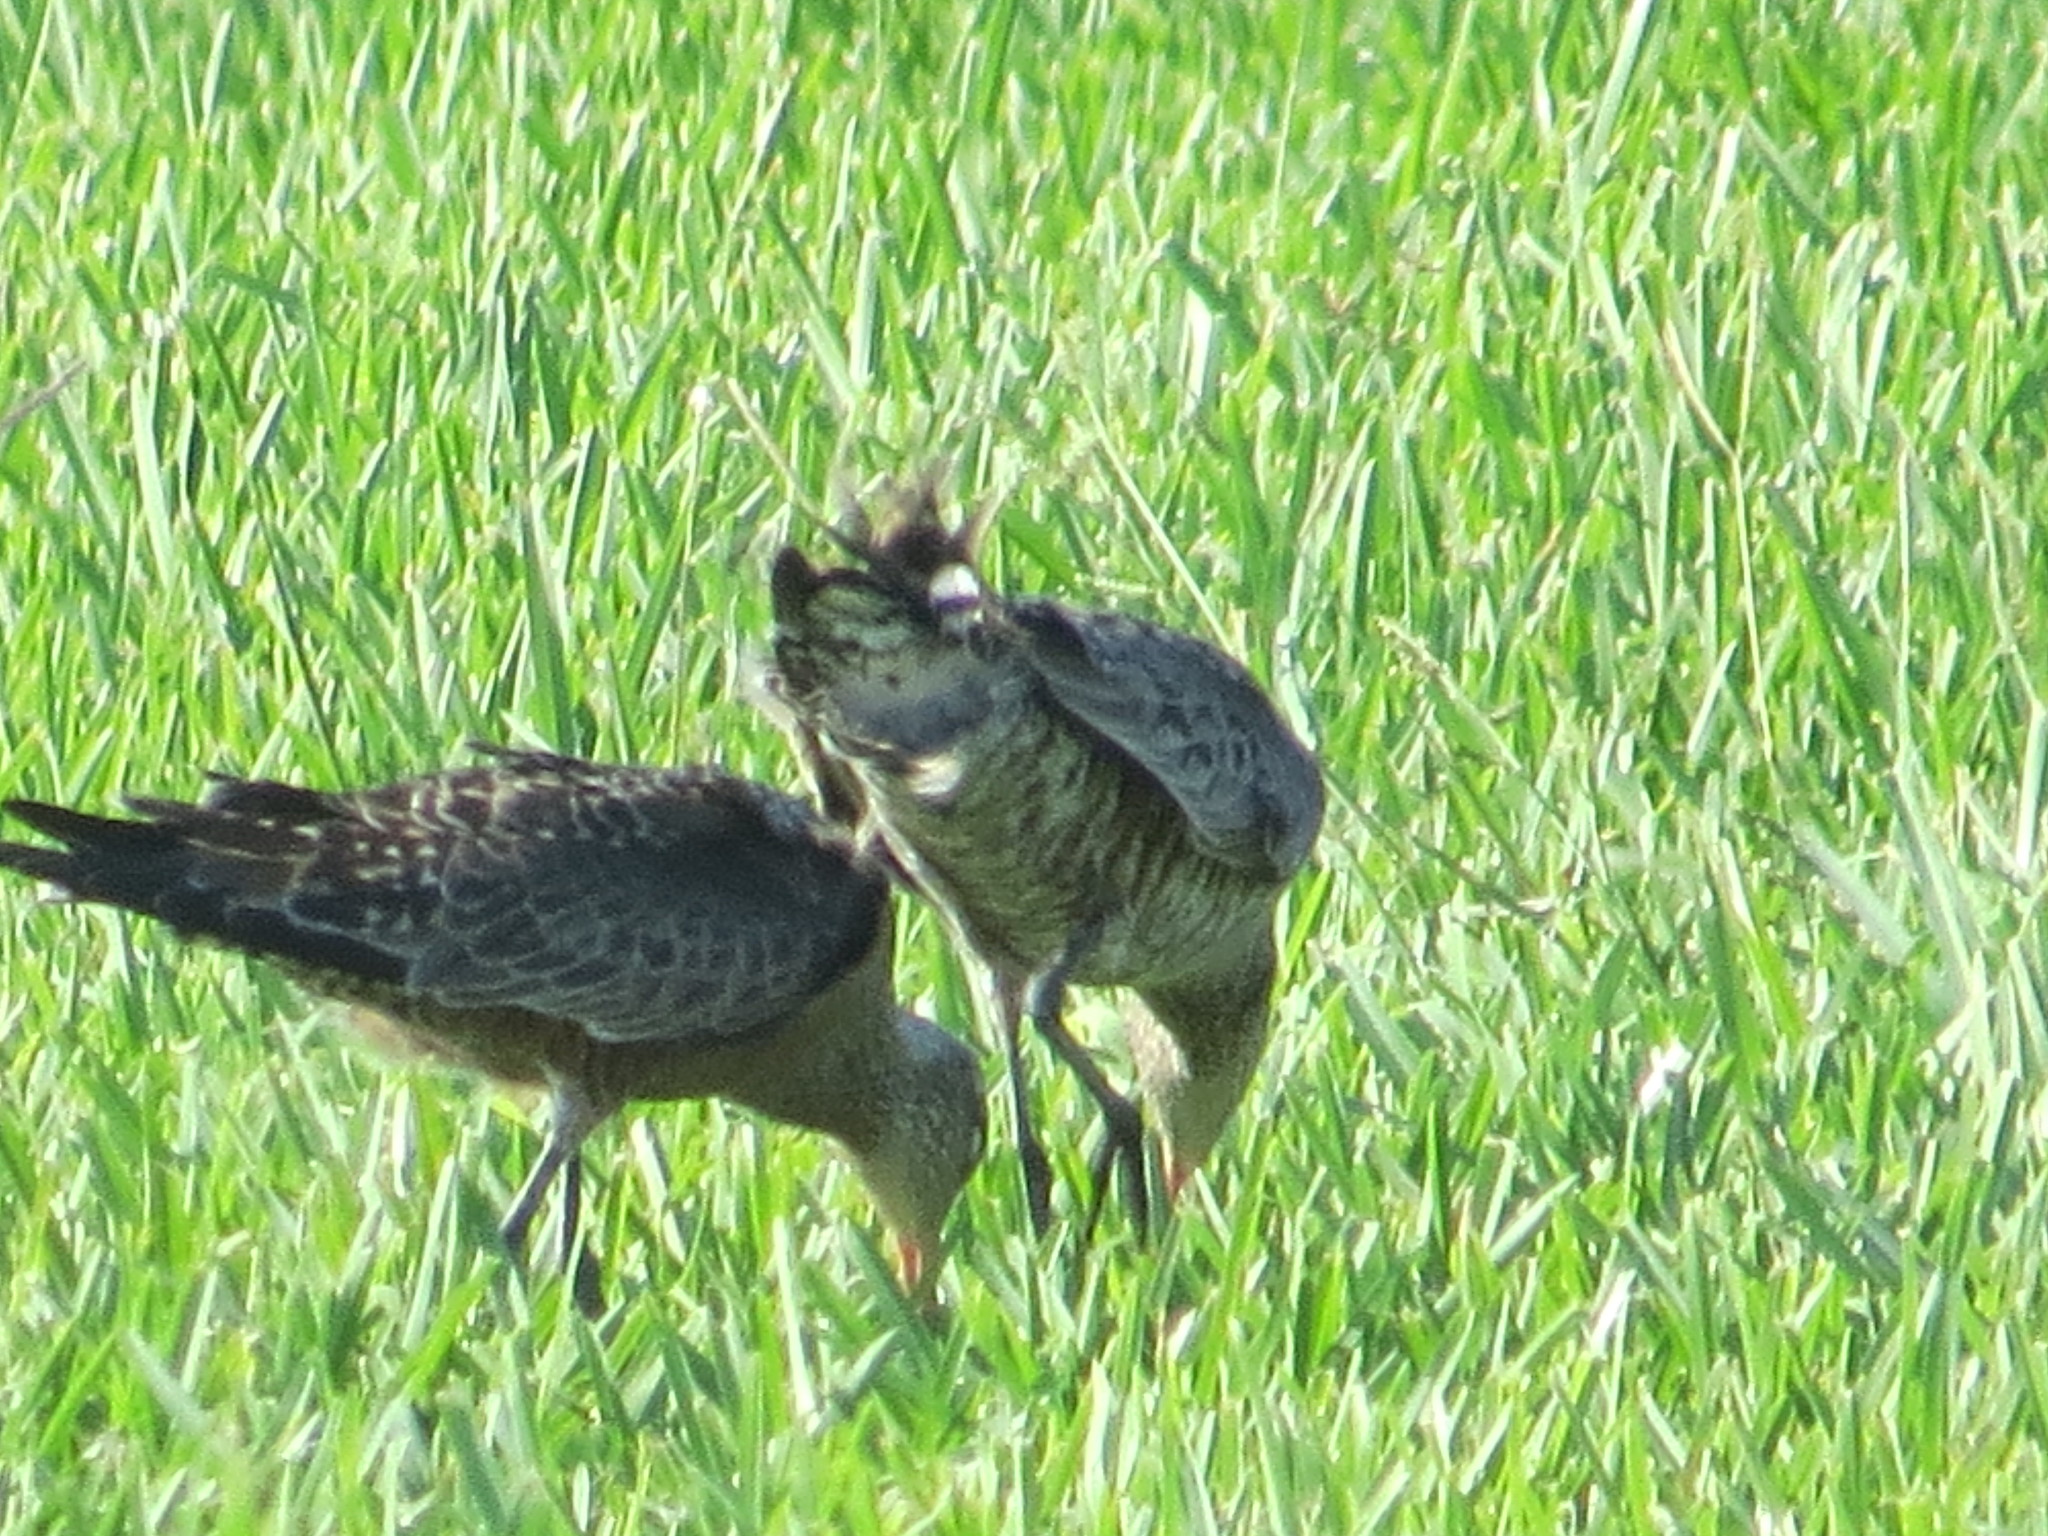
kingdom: Animalia
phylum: Chordata
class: Aves
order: Charadriiformes
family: Scolopacidae
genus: Limosa
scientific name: Limosa haemastica
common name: Hudsonian godwit
